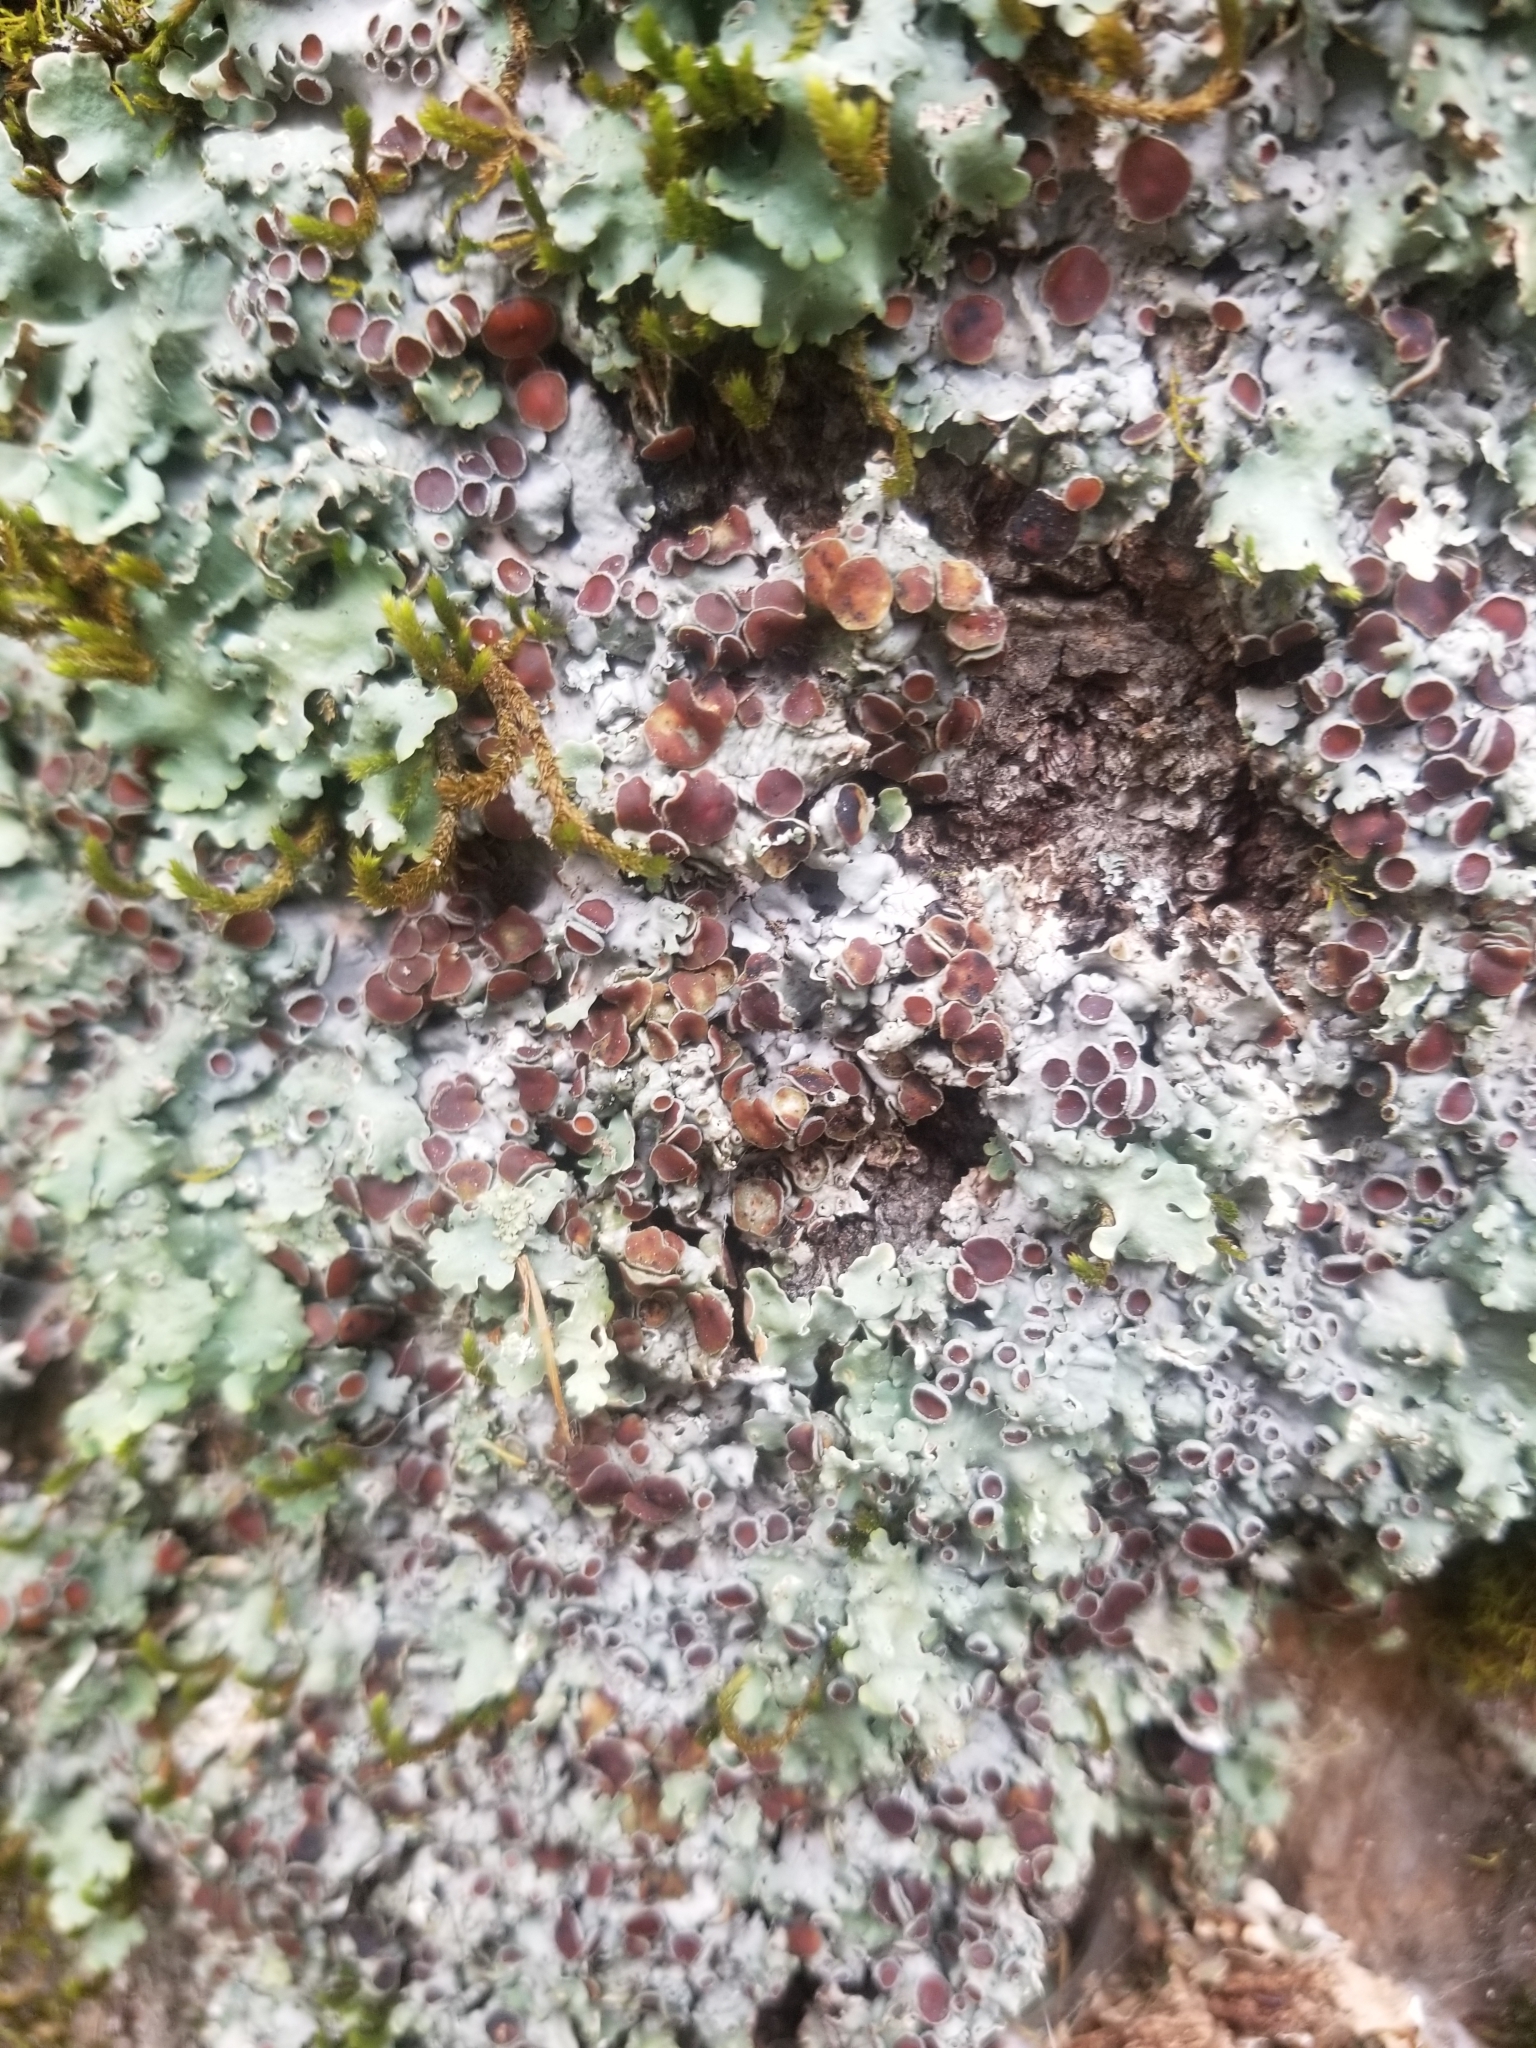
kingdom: Fungi
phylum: Ascomycota
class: Lecanoromycetes
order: Peltigerales
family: Lobariaceae
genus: Ricasolia
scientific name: Ricasolia quercizans
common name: Smooth lungwort
